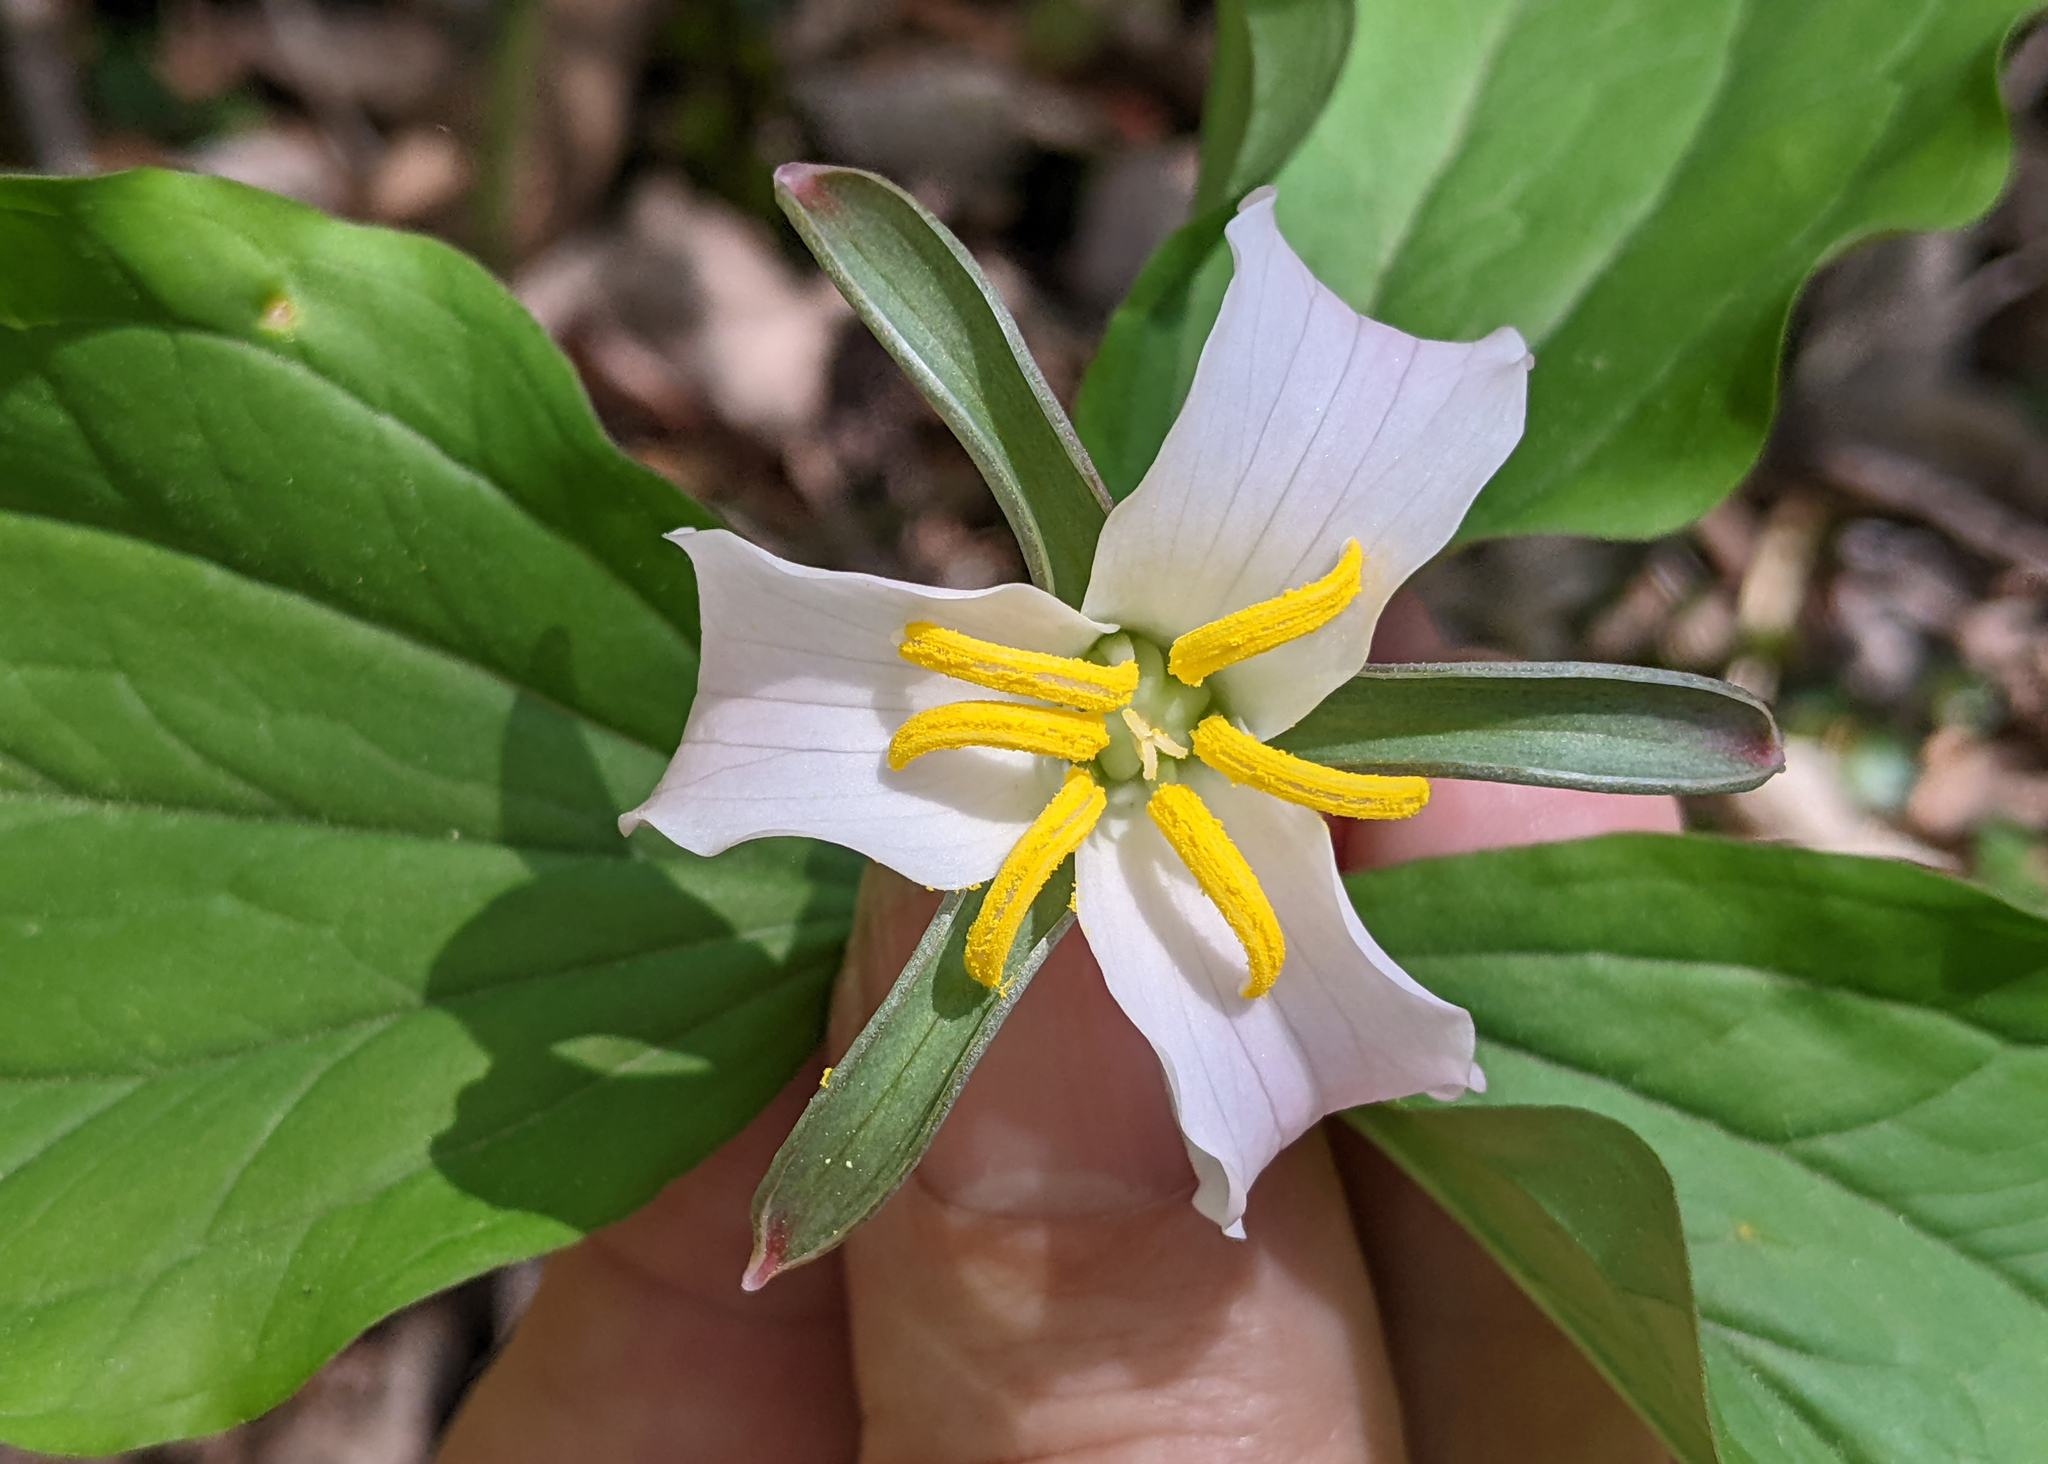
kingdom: Plantae
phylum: Tracheophyta
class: Liliopsida
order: Liliales
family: Melanthiaceae
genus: Trillium
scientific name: Trillium catesbaei
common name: Bashful trillium
